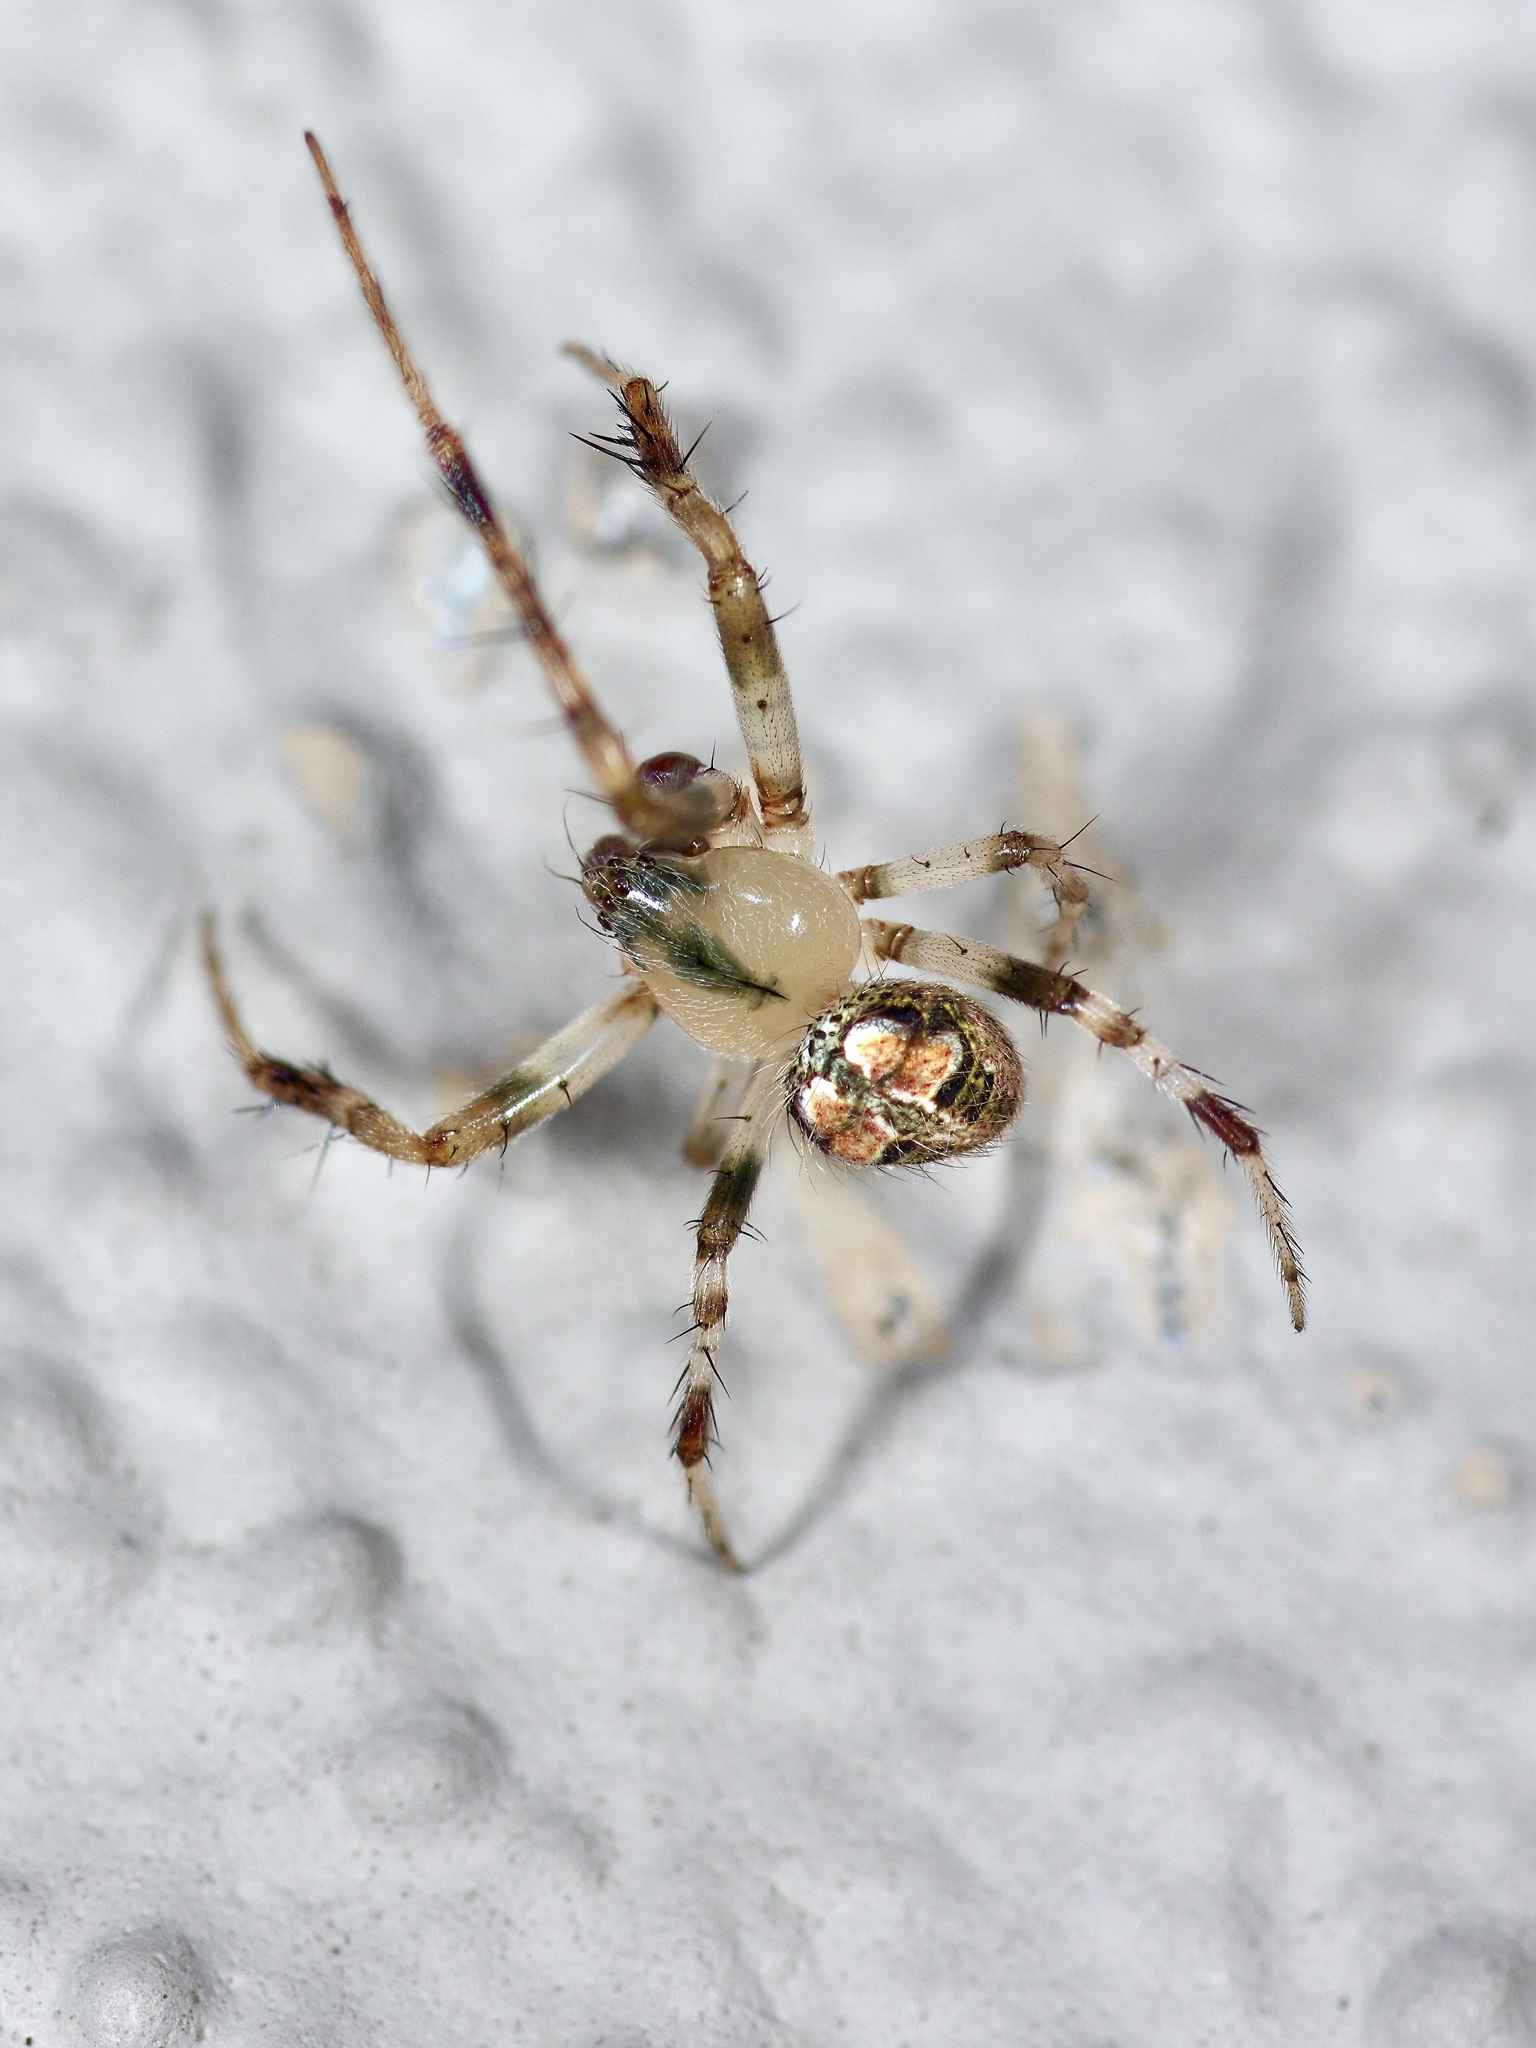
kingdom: Animalia
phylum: Arthropoda
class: Arachnida
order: Araneae
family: Araneidae
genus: Araneus
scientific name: Araneus pegnia
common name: Orb weavers
